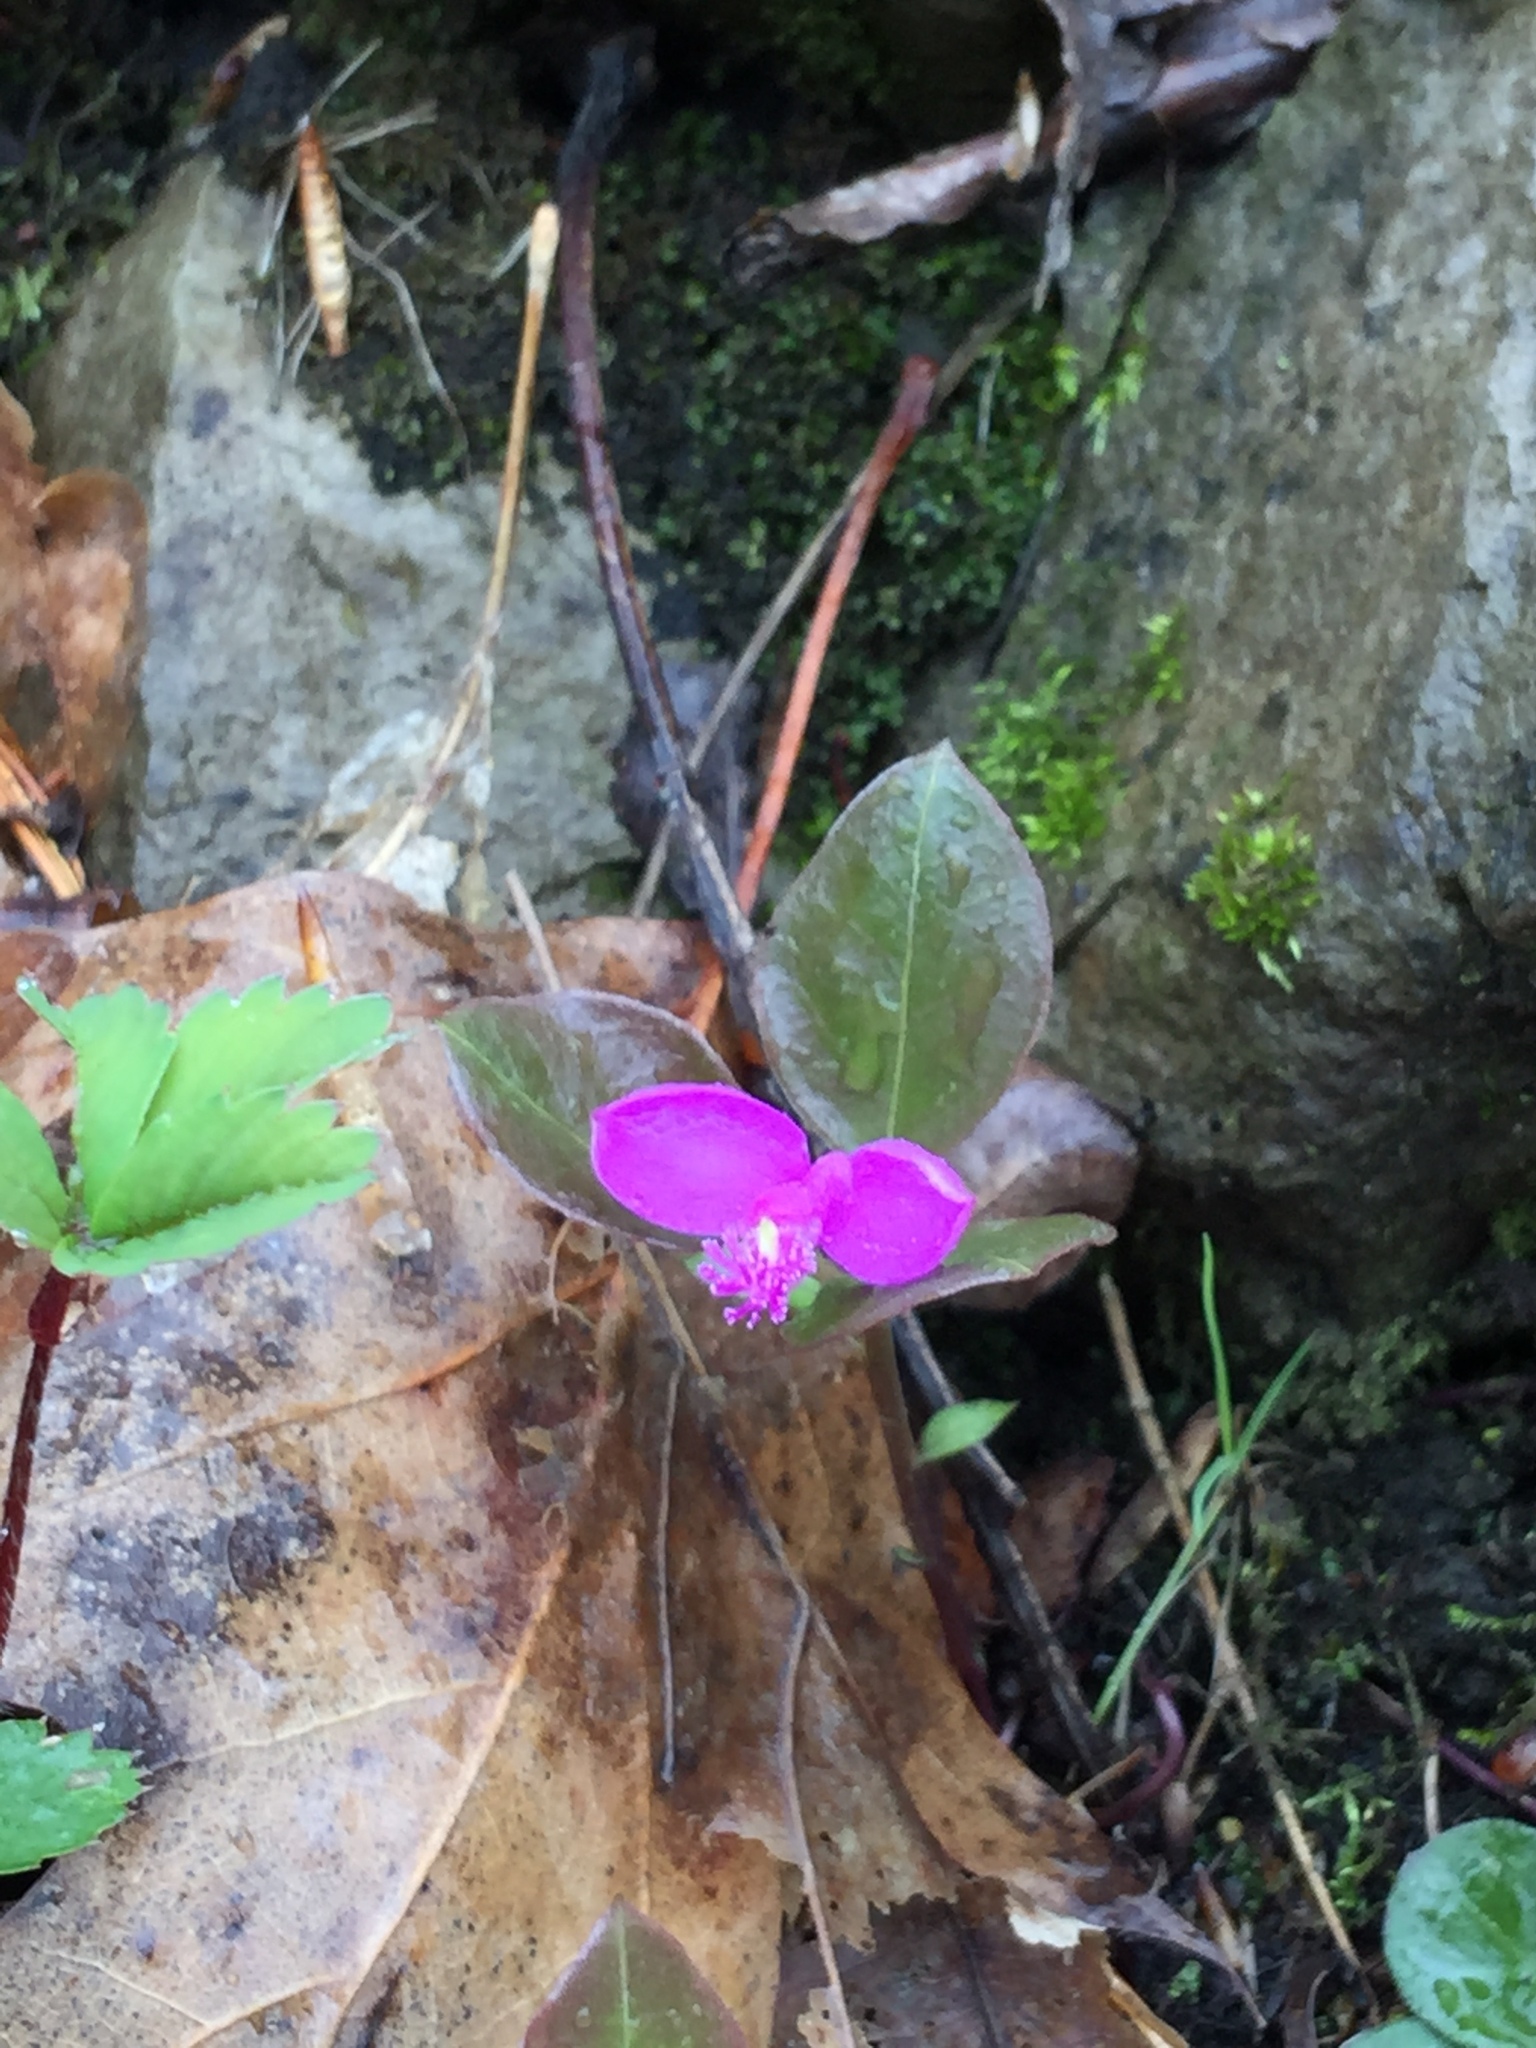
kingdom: Plantae
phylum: Tracheophyta
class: Magnoliopsida
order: Fabales
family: Polygalaceae
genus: Polygaloides
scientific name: Polygaloides paucifolia
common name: Bird-on-the-wing
